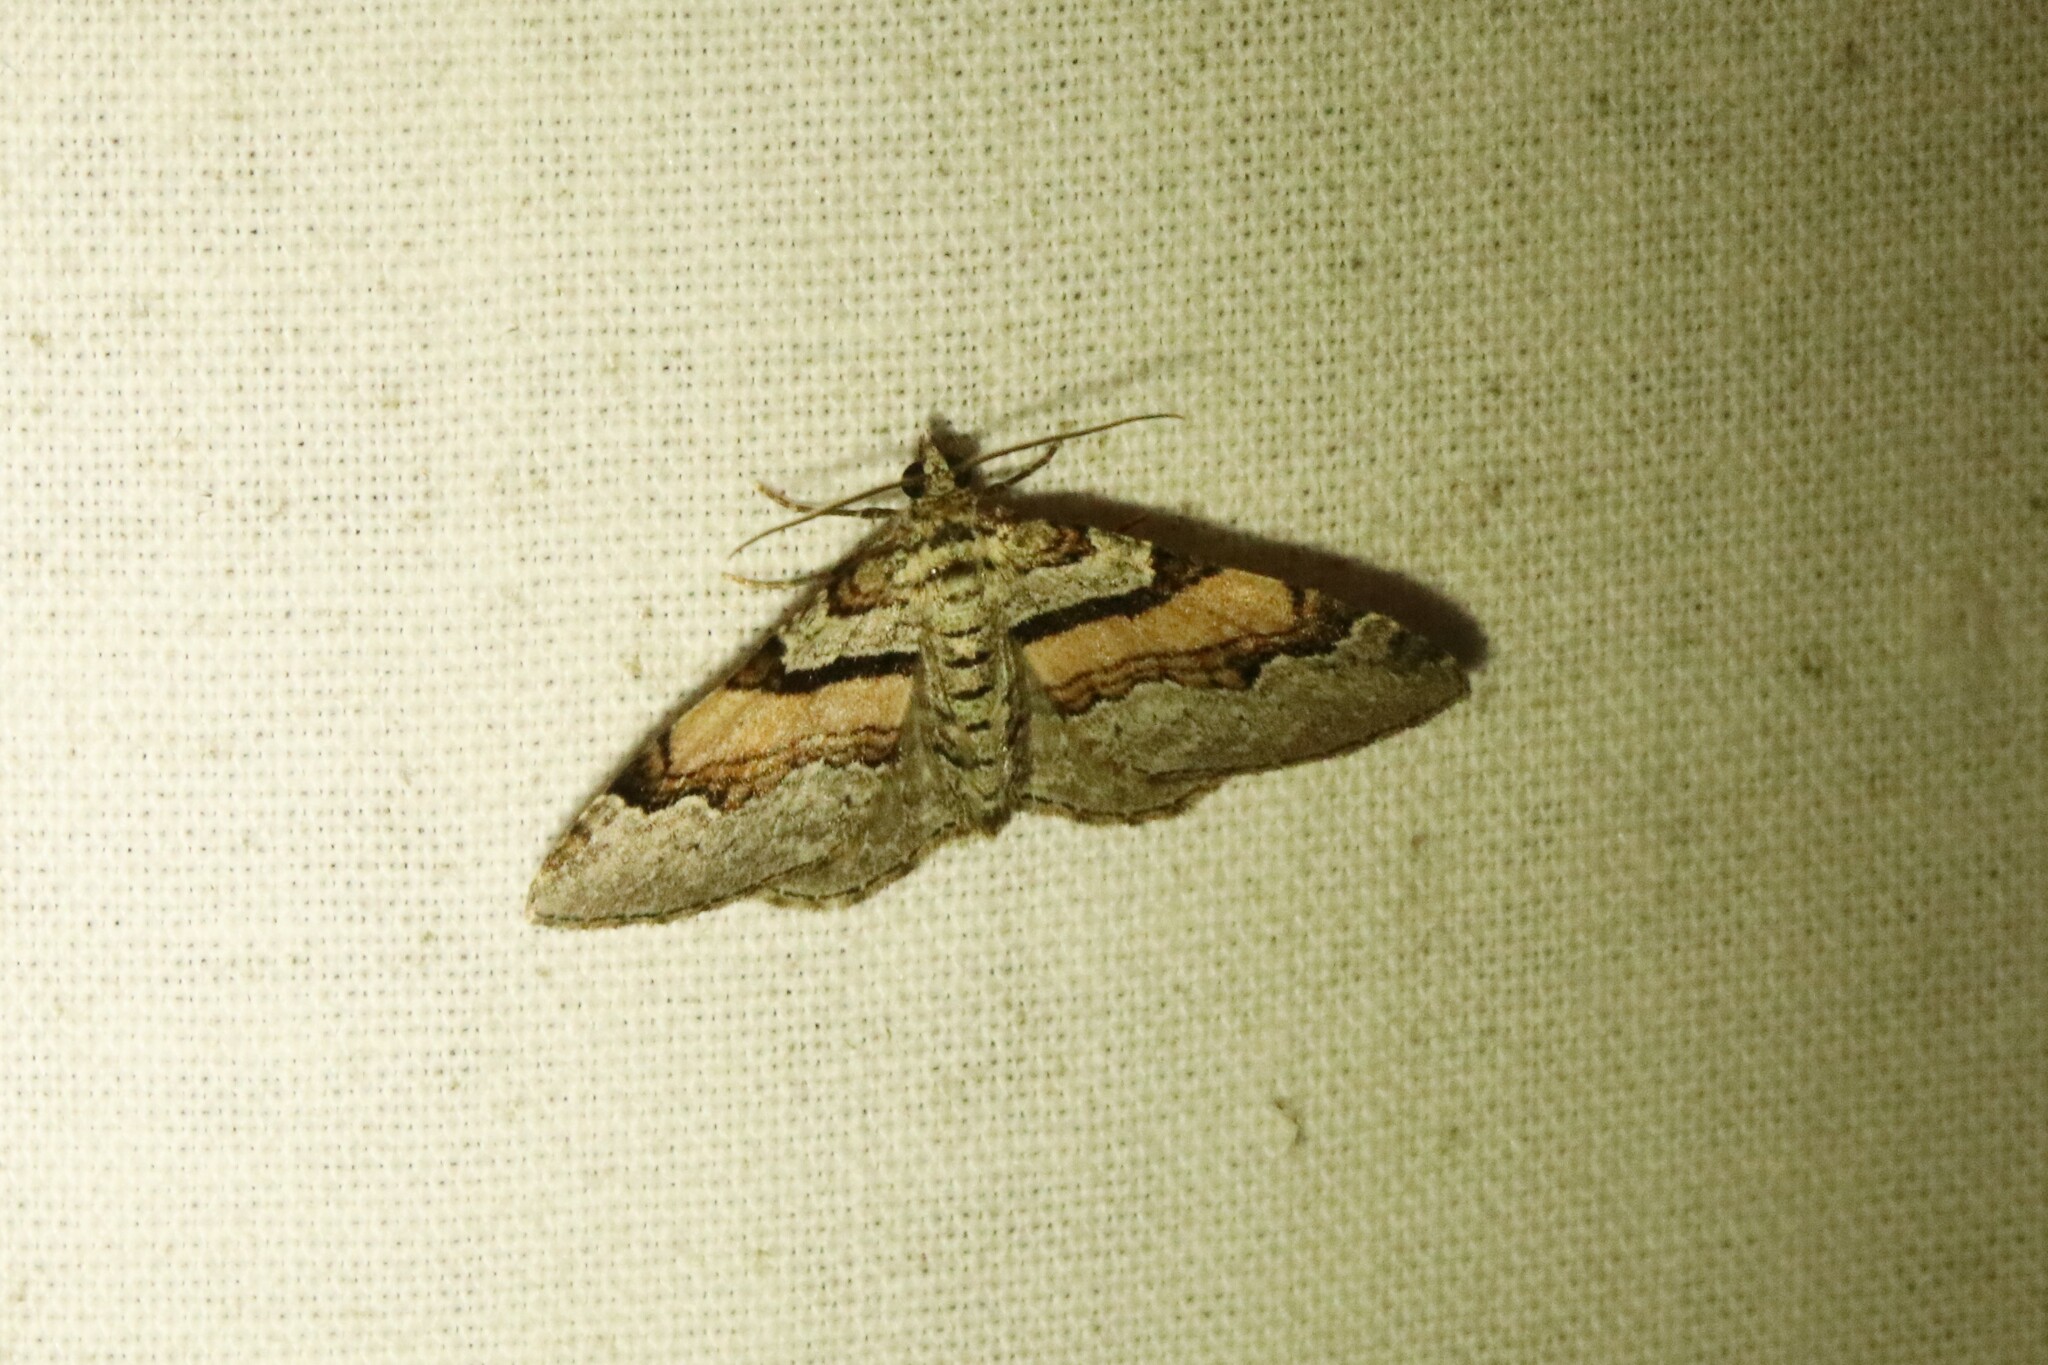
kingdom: Animalia
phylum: Arthropoda
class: Insecta
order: Lepidoptera
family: Geometridae
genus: Xanthorhoe
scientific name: Xanthorhoe labradorensis
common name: Labrador carpet
